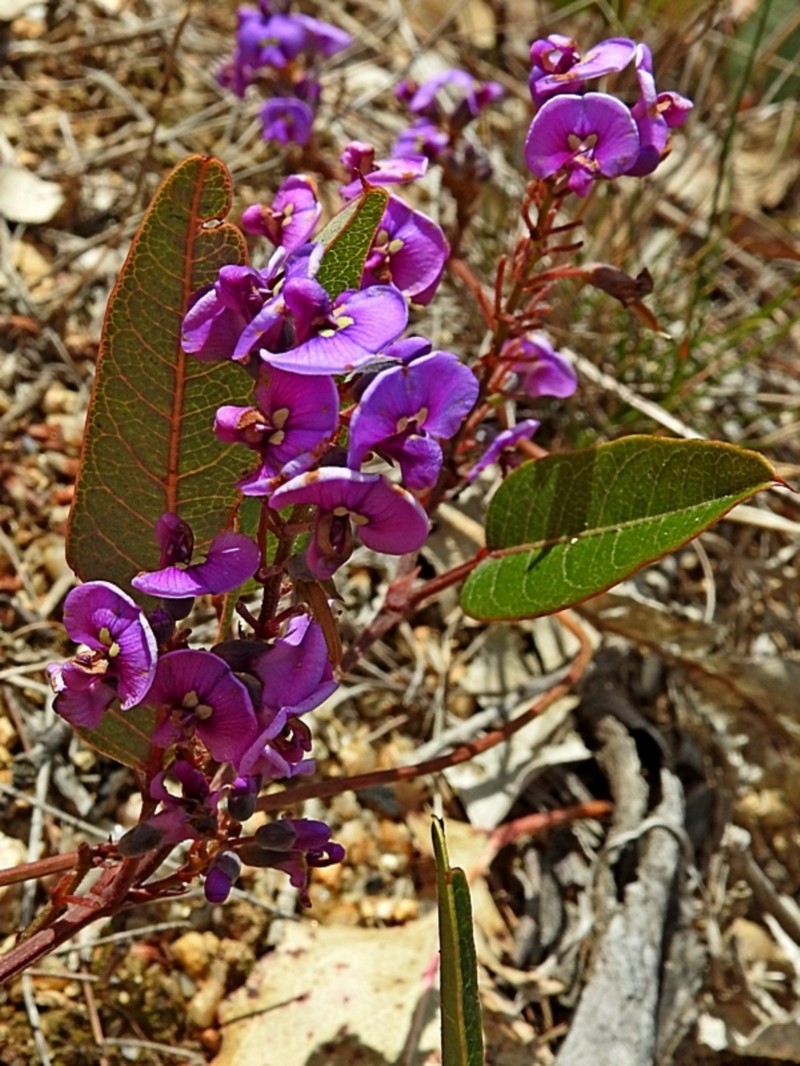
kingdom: Plantae
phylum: Tracheophyta
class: Magnoliopsida
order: Fabales
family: Fabaceae
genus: Hardenbergia
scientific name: Hardenbergia violacea
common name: Coral-pea
